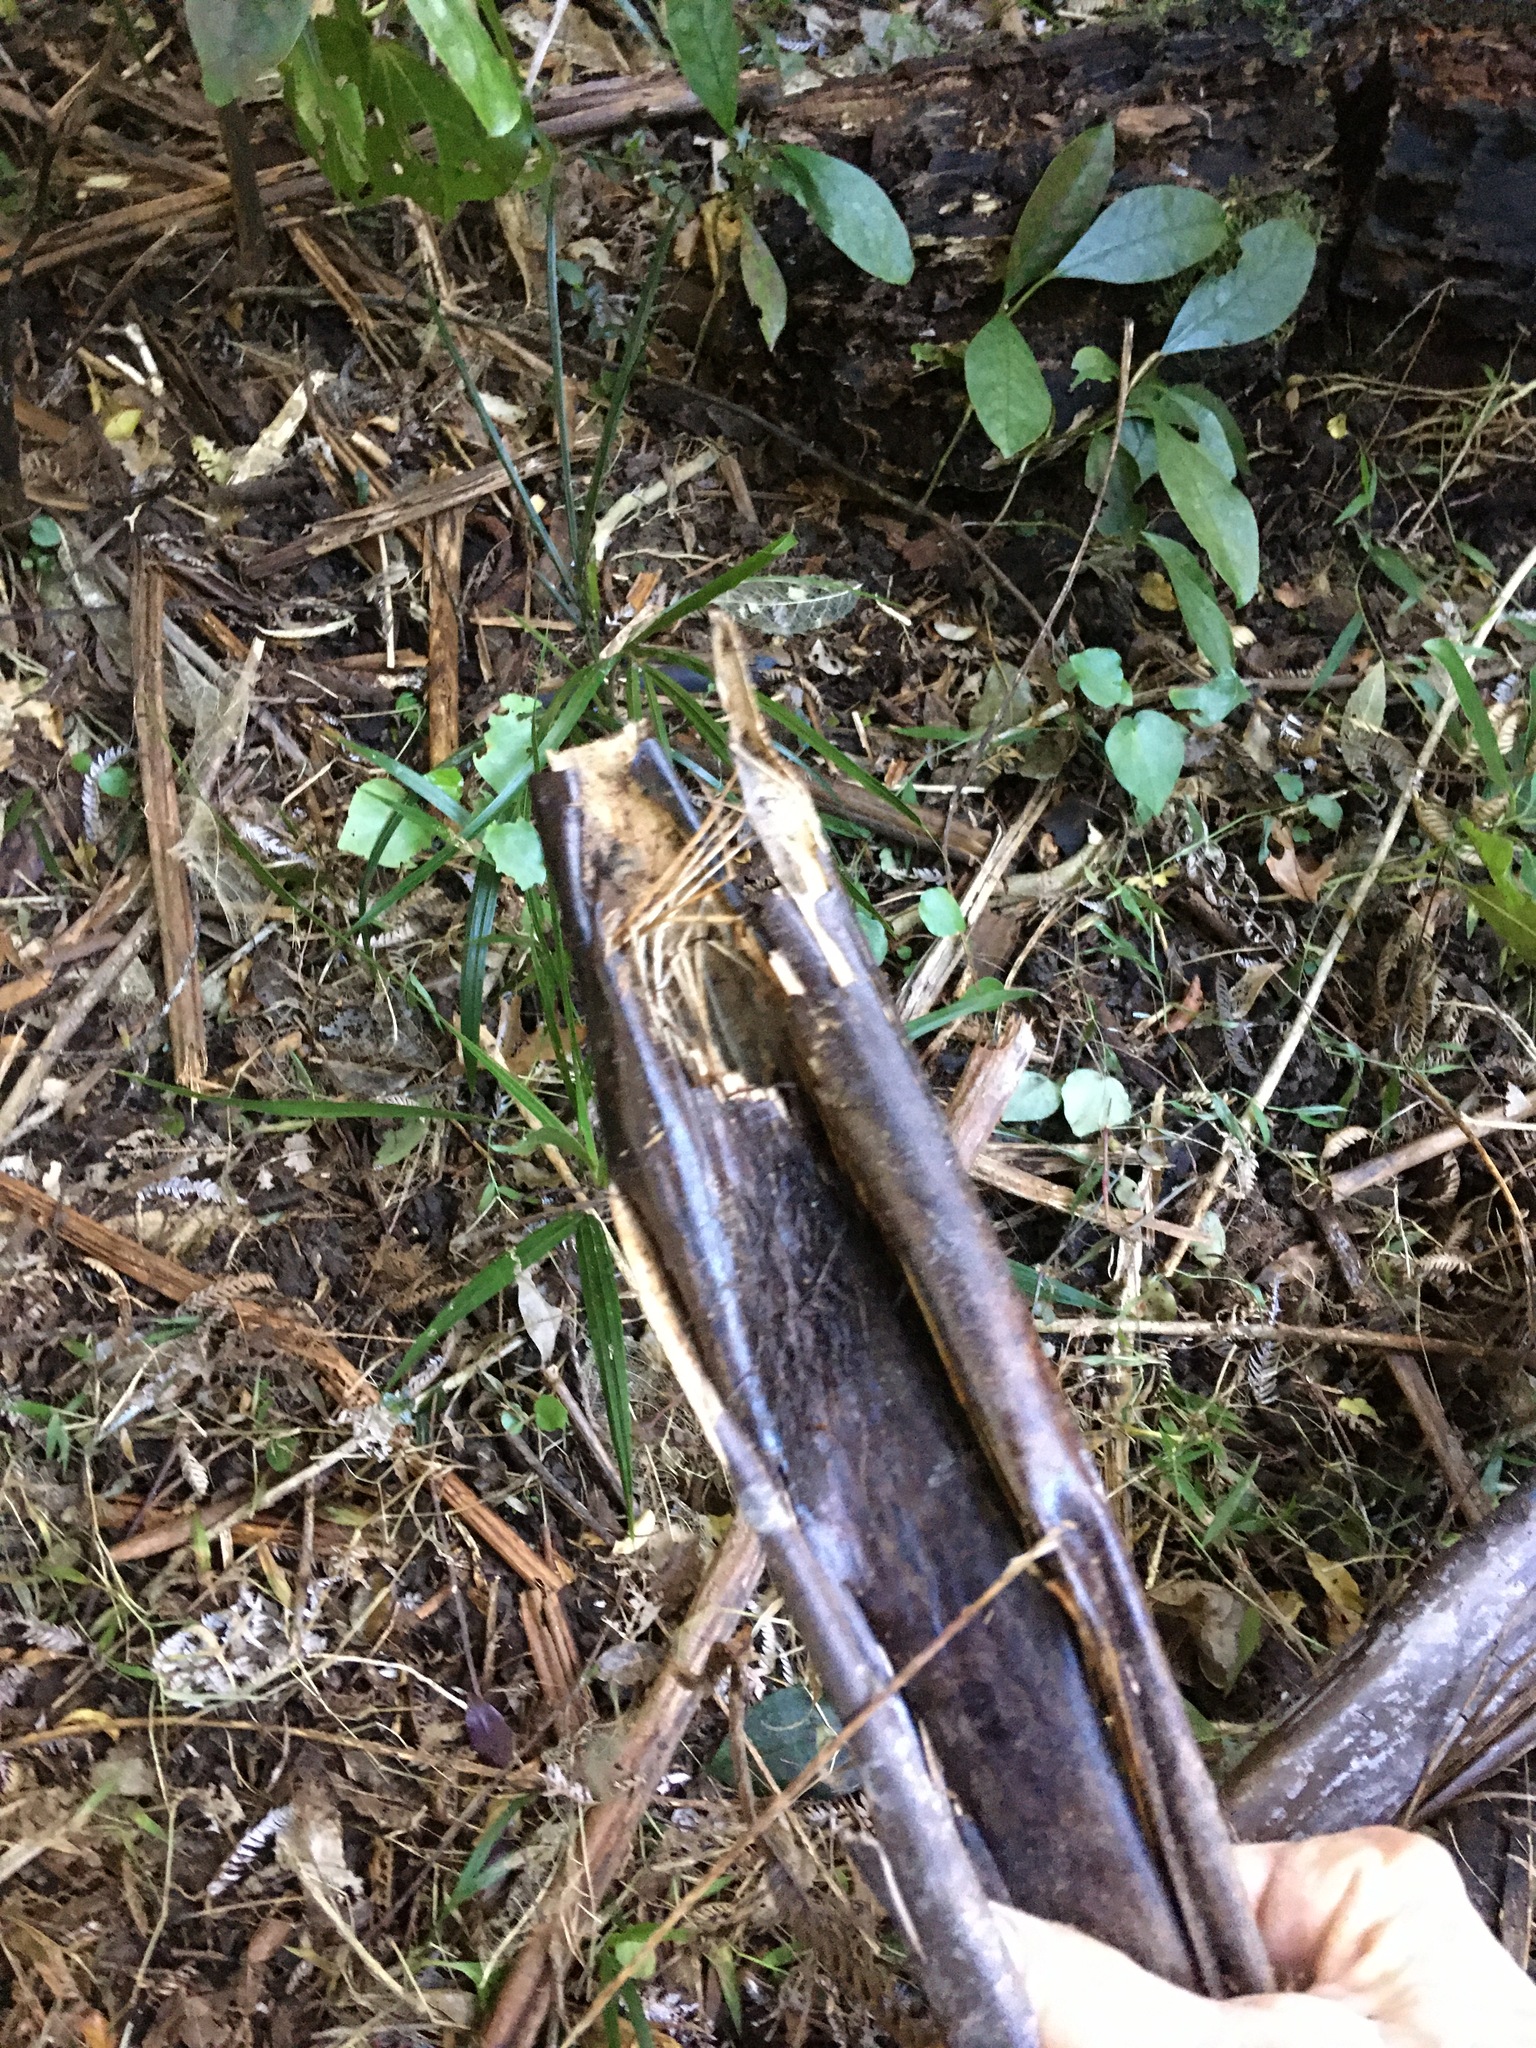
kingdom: Plantae
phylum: Tracheophyta
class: Polypodiopsida
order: Cyatheales
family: Cyatheaceae
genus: Sphaeropteris
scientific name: Sphaeropteris medullaris
